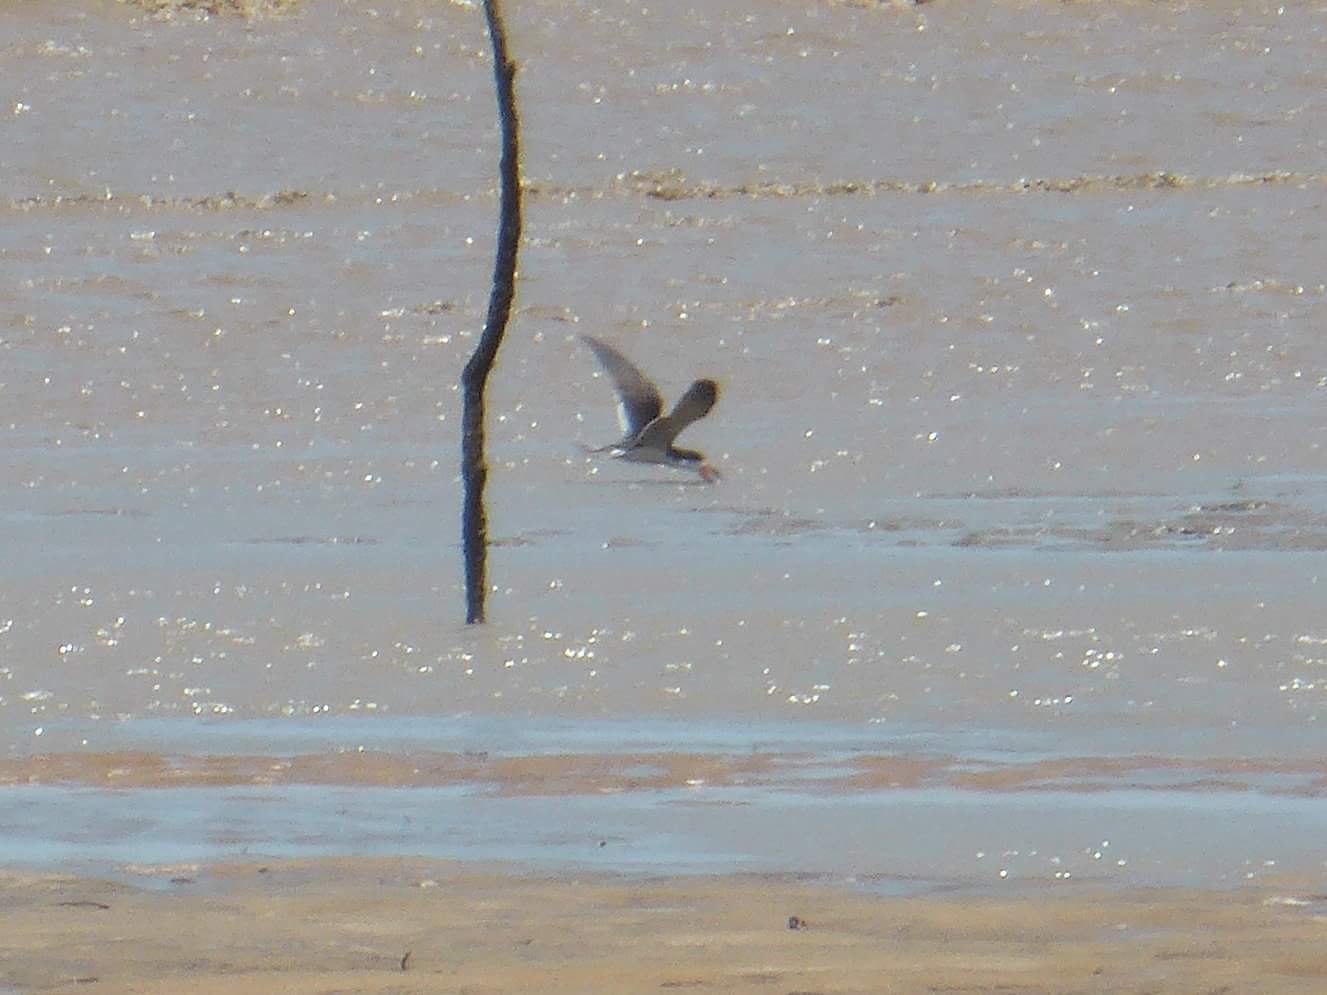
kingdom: Animalia
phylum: Chordata
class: Aves
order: Charadriiformes
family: Laridae
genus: Rynchops
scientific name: Rynchops niger
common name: Black skimmer
